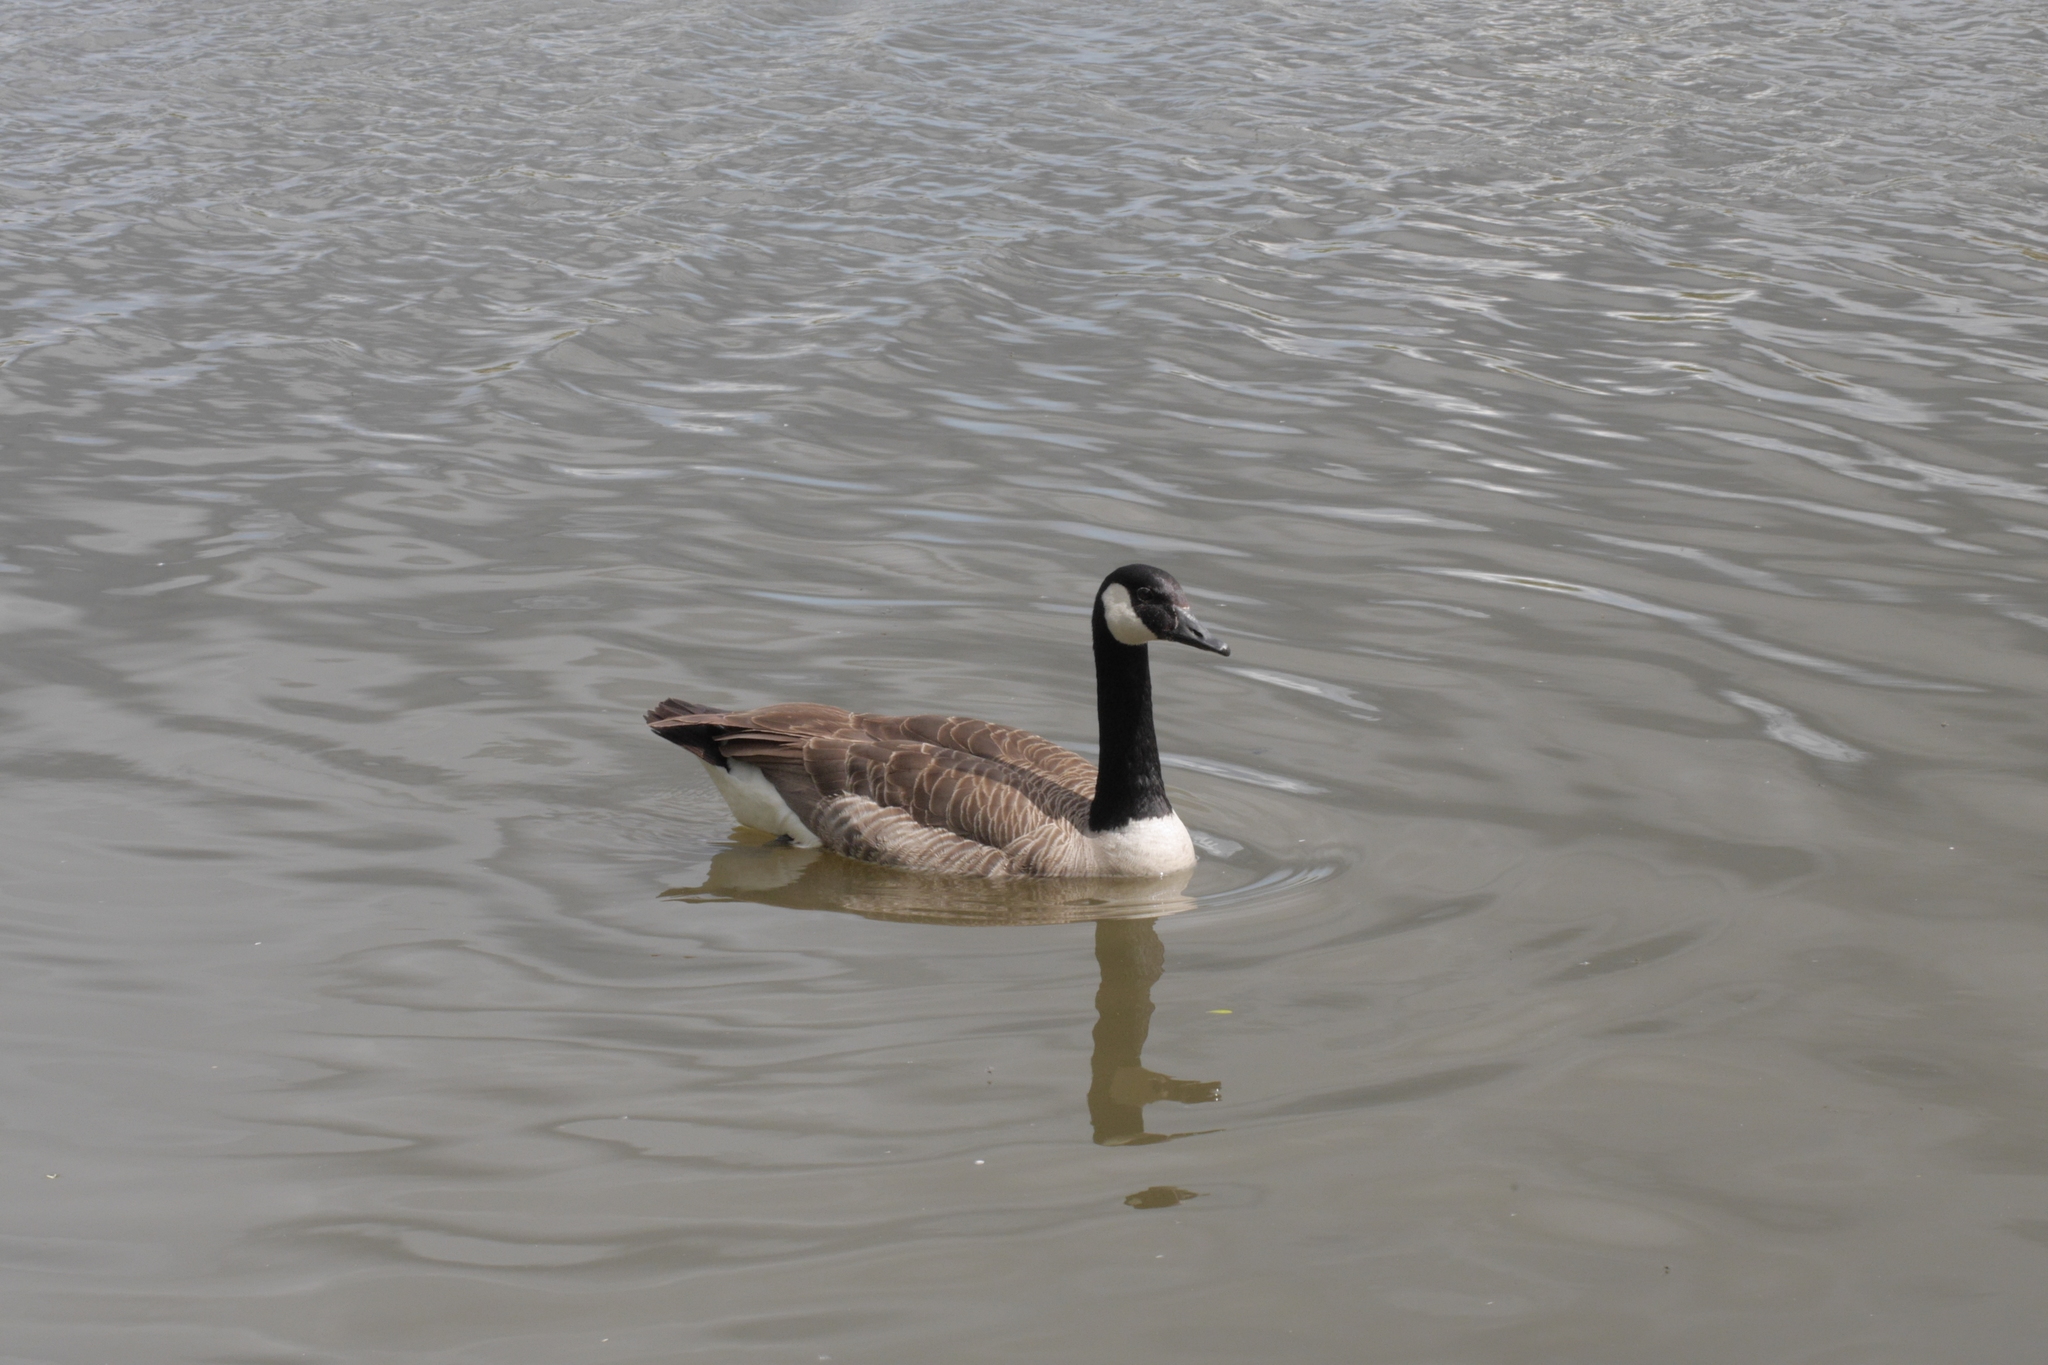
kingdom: Animalia
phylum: Chordata
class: Aves
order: Anseriformes
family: Anatidae
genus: Branta
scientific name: Branta canadensis
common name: Canada goose
